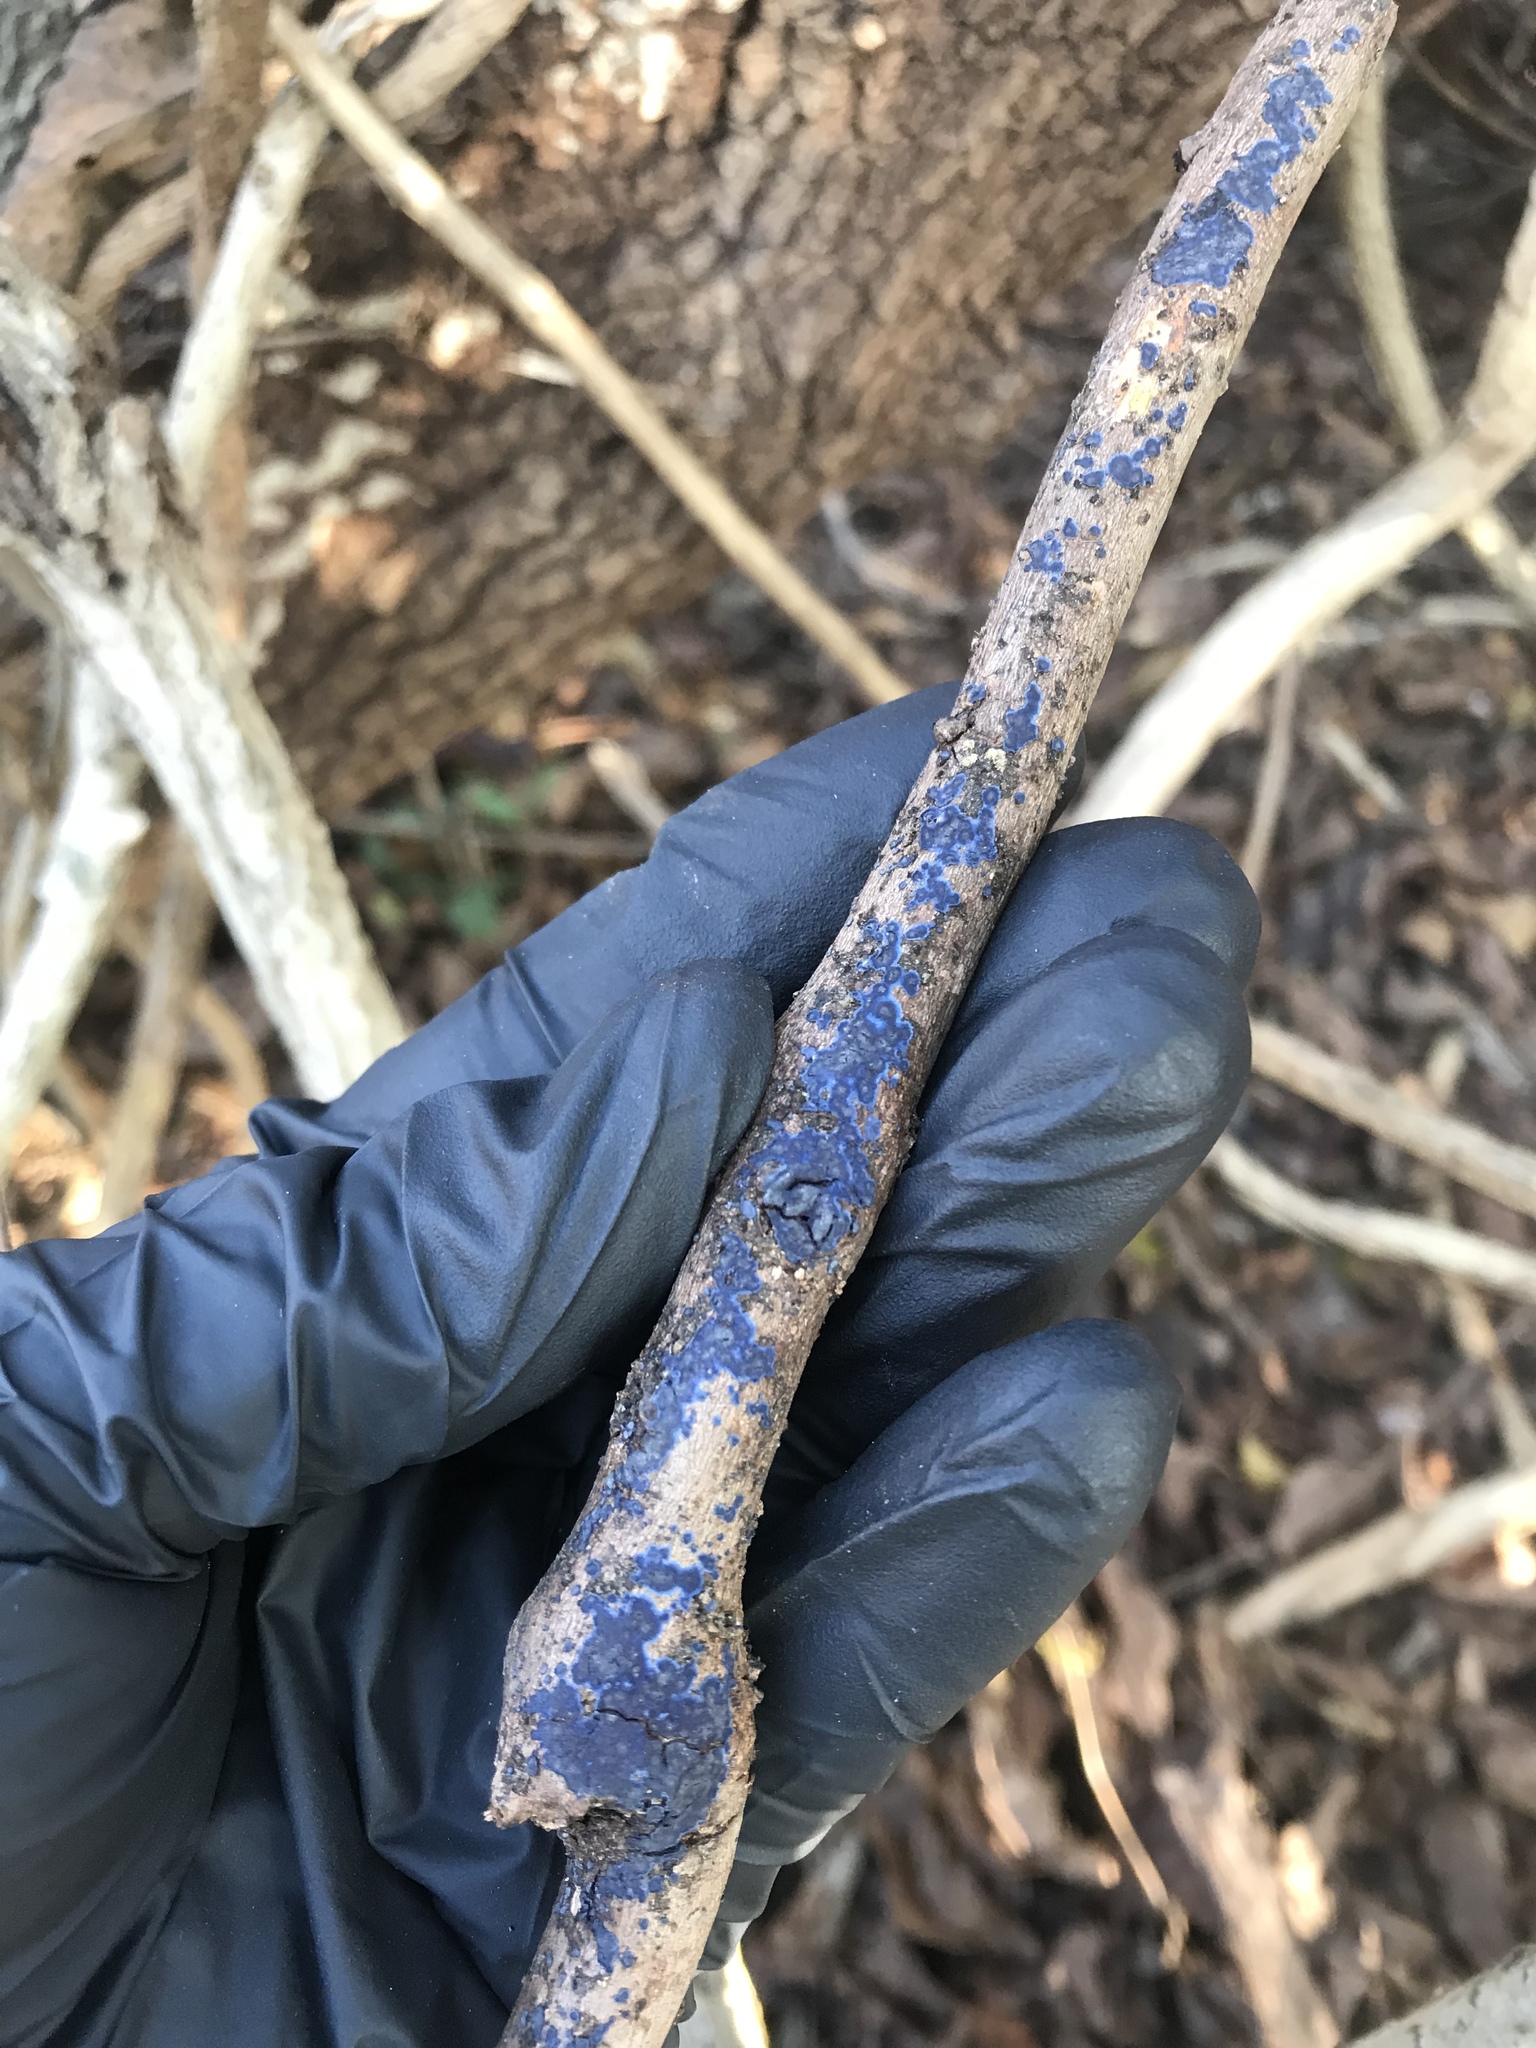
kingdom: Fungi
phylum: Basidiomycota
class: Agaricomycetes
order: Polyporales
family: Phanerochaetaceae
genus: Terana
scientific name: Terana coerulea
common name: Cobalt crust
